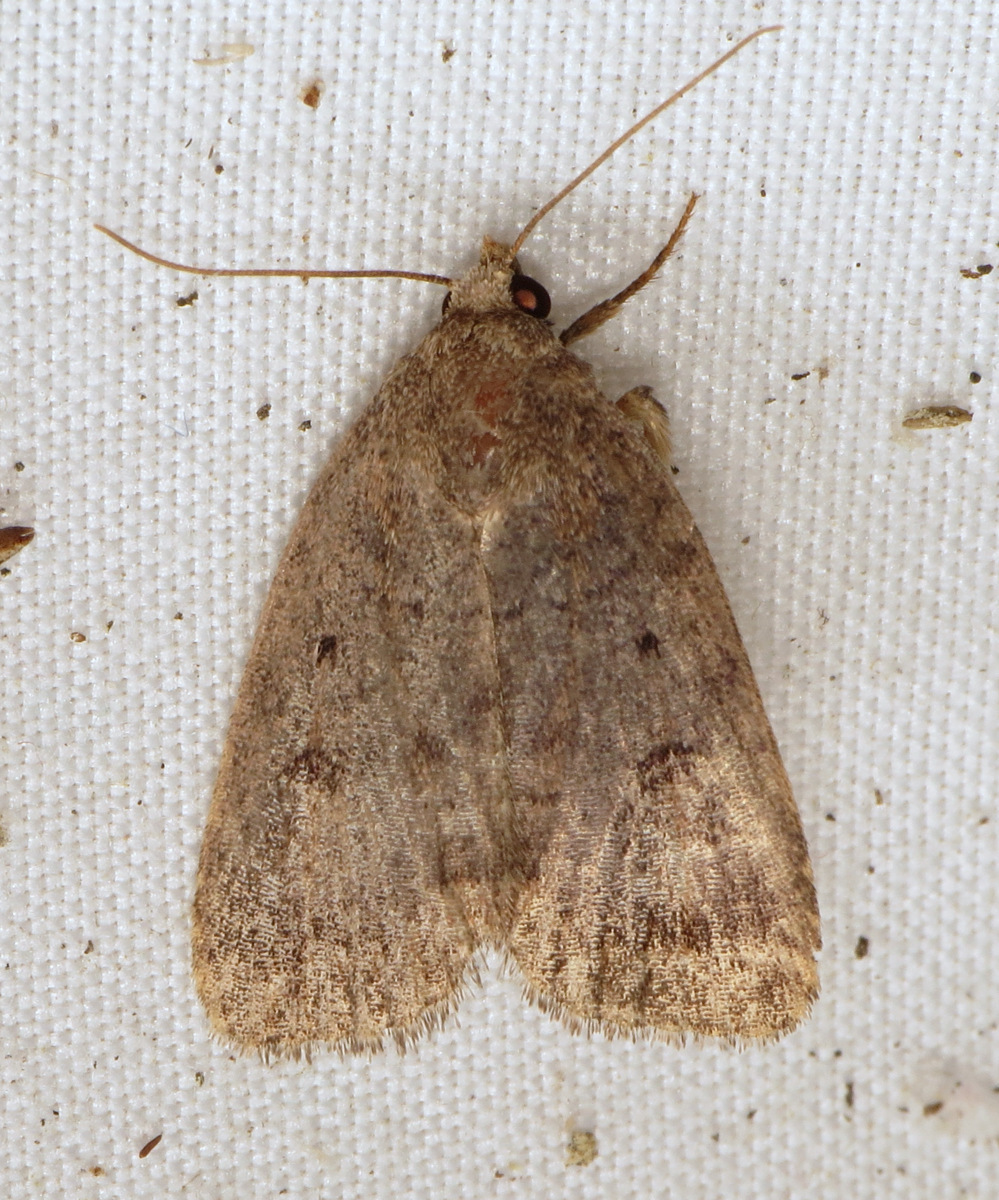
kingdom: Animalia
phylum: Arthropoda
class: Insecta
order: Lepidoptera
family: Noctuidae
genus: Athetis
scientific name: Athetis tarda
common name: Slowpoke moth
